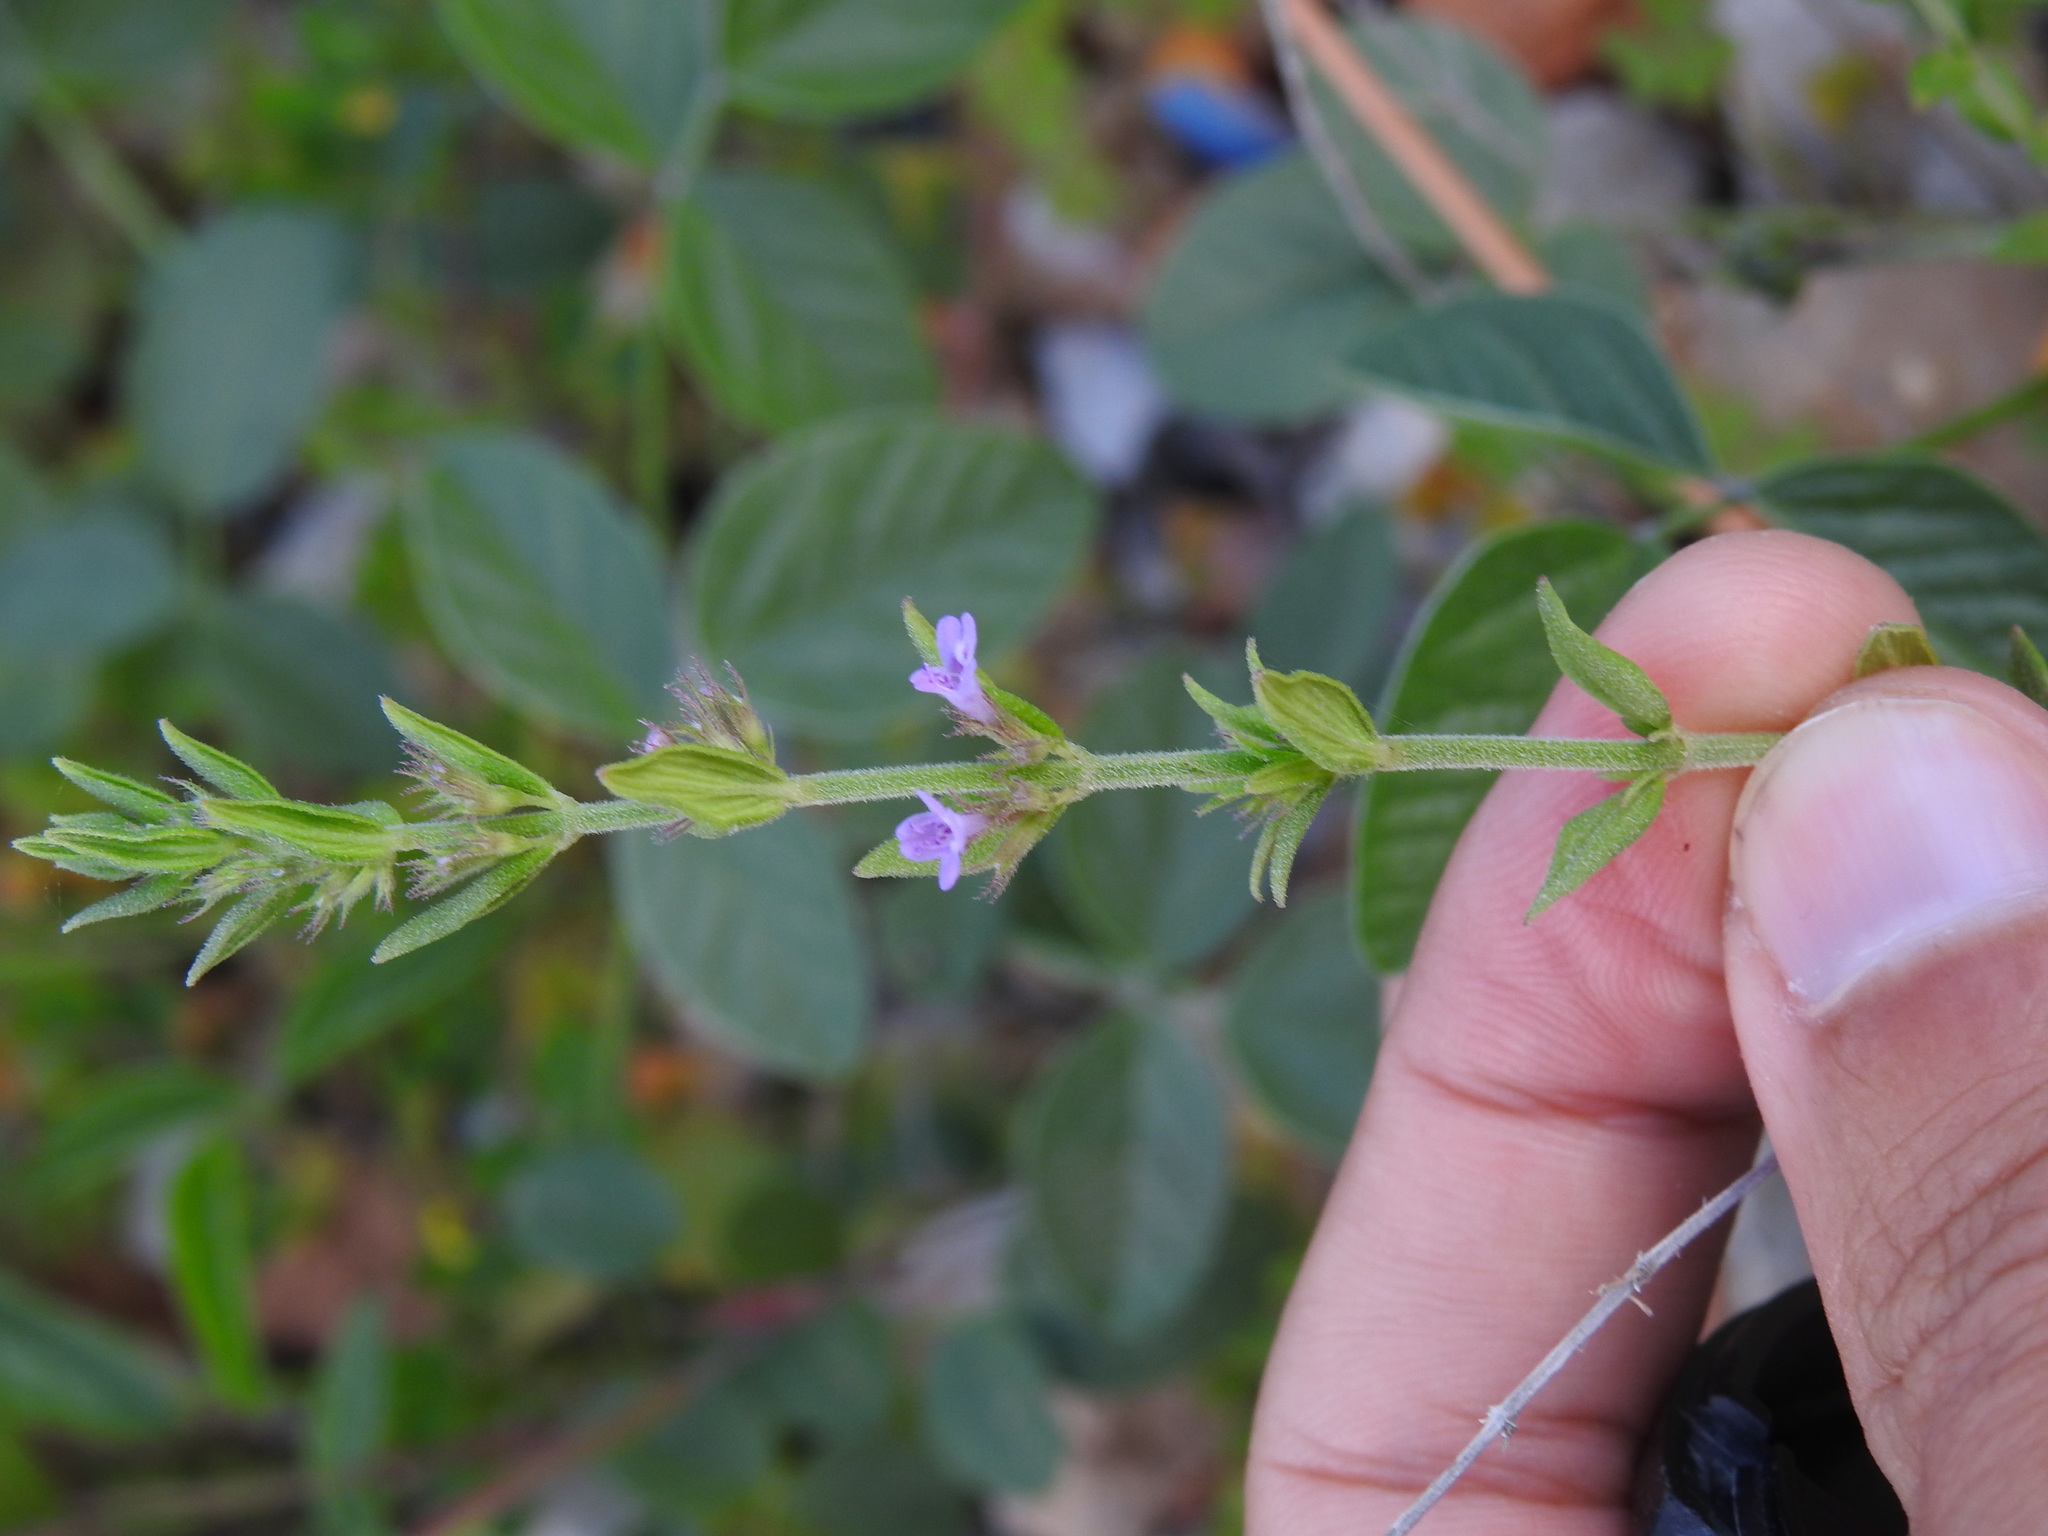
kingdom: Plantae
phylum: Tracheophyta
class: Magnoliopsida
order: Lamiales
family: Lamiaceae
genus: Micromeria
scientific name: Micromeria graeca
